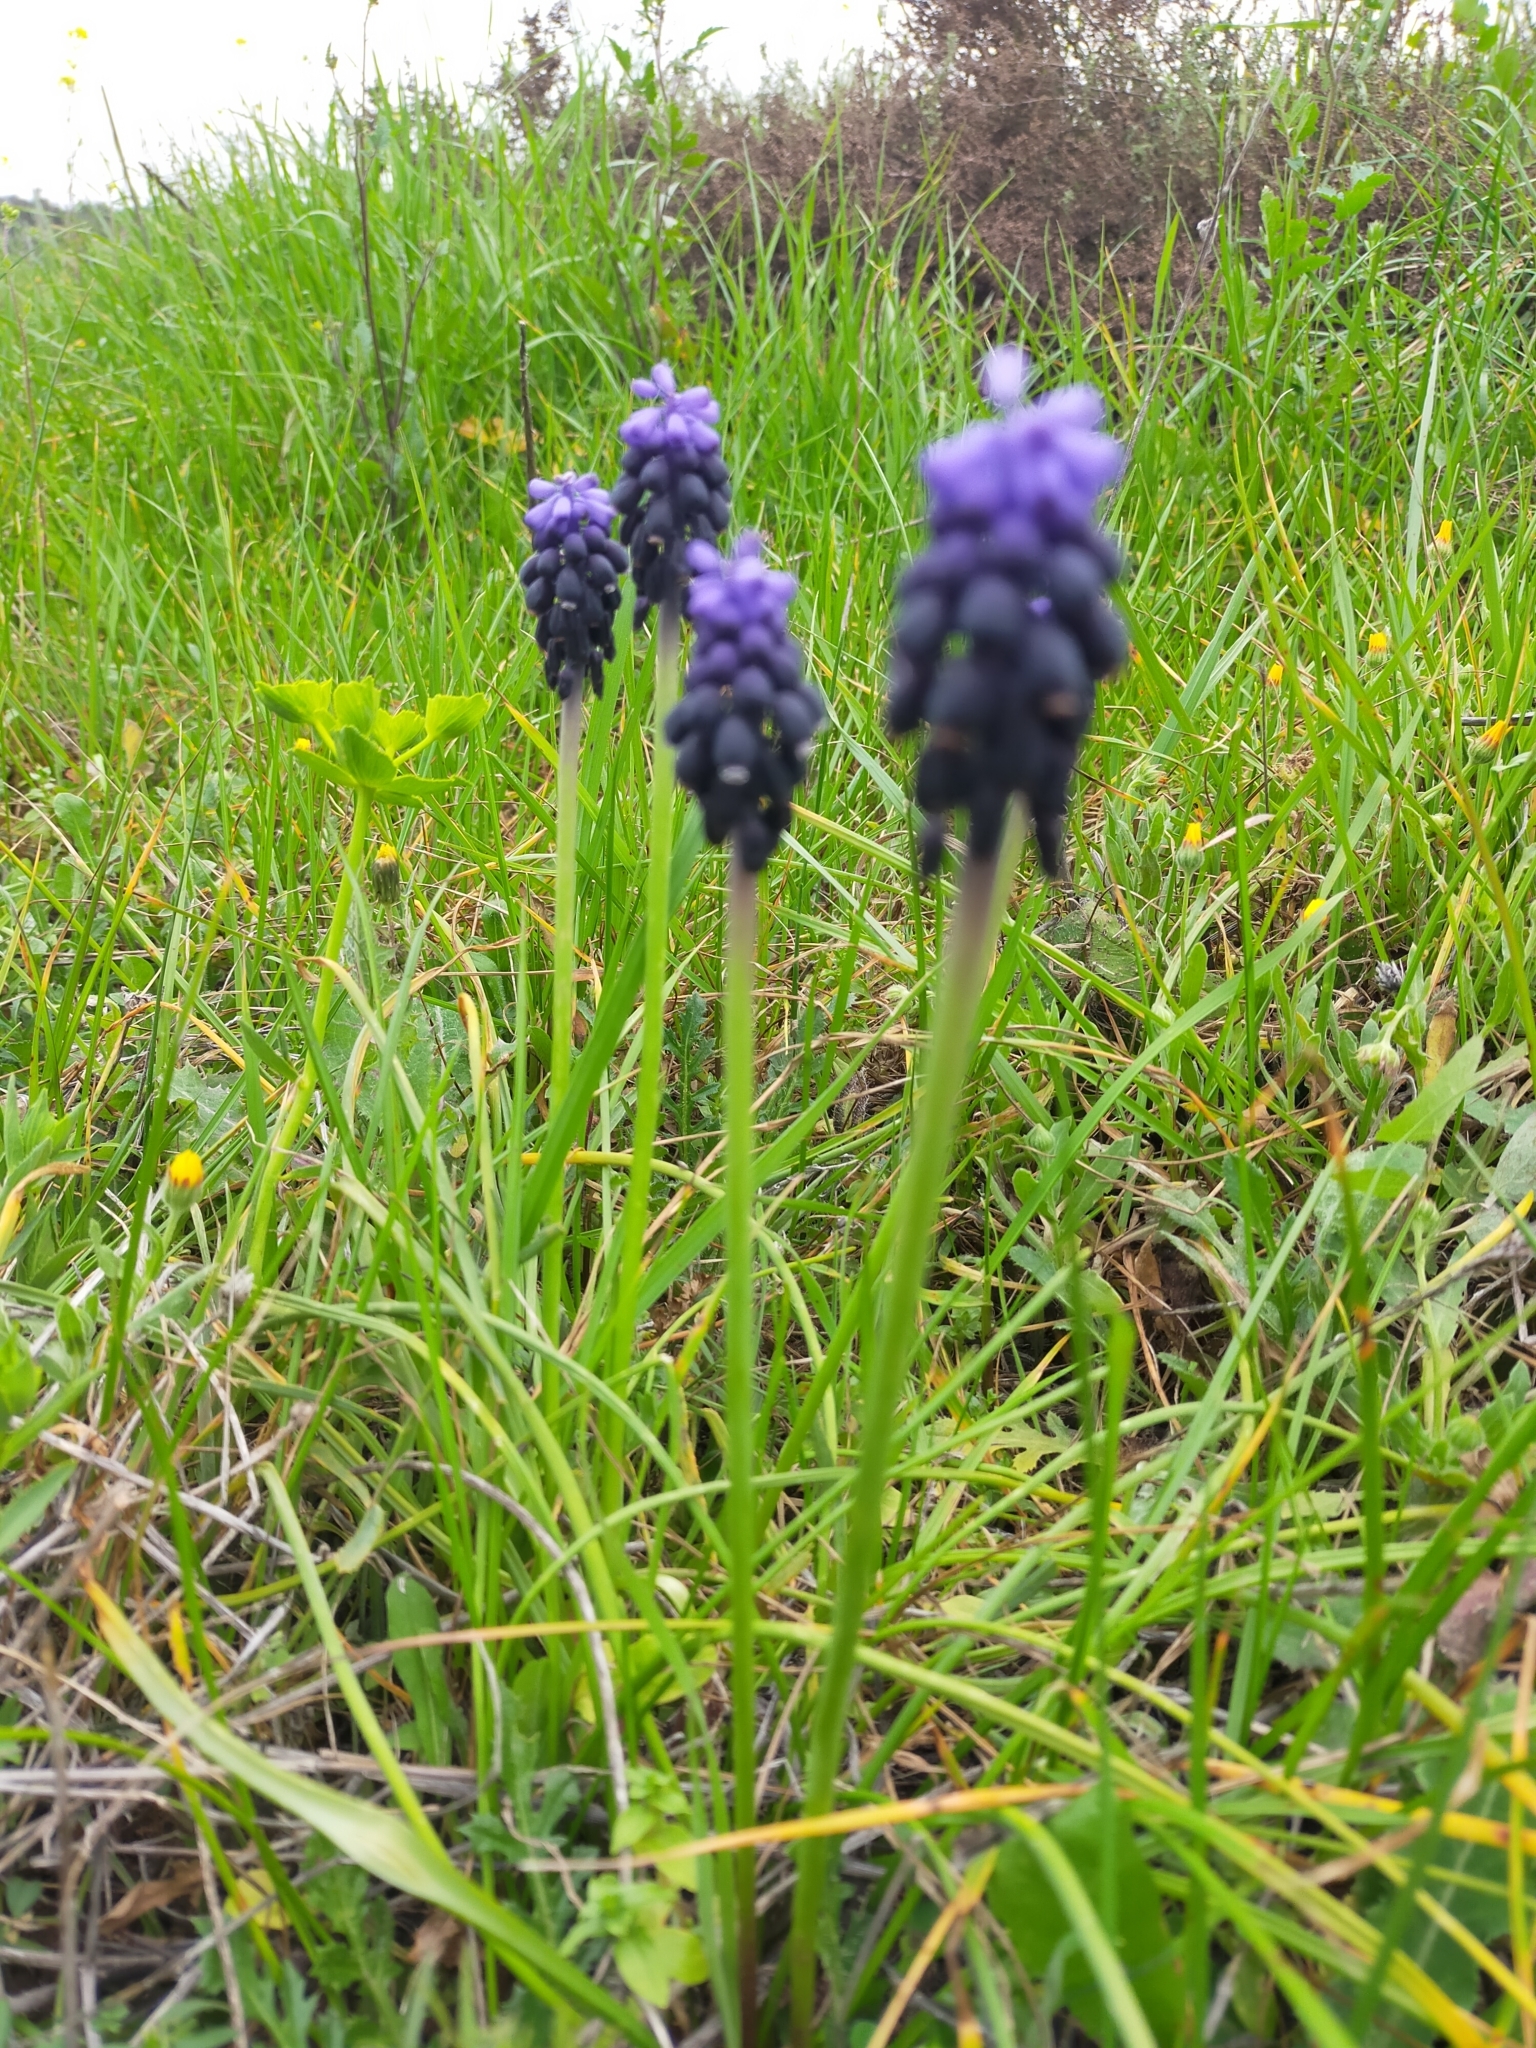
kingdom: Plantae
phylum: Tracheophyta
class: Liliopsida
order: Asparagales
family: Asparagaceae
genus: Muscari
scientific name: Muscari neglectum
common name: Grape-hyacinth
